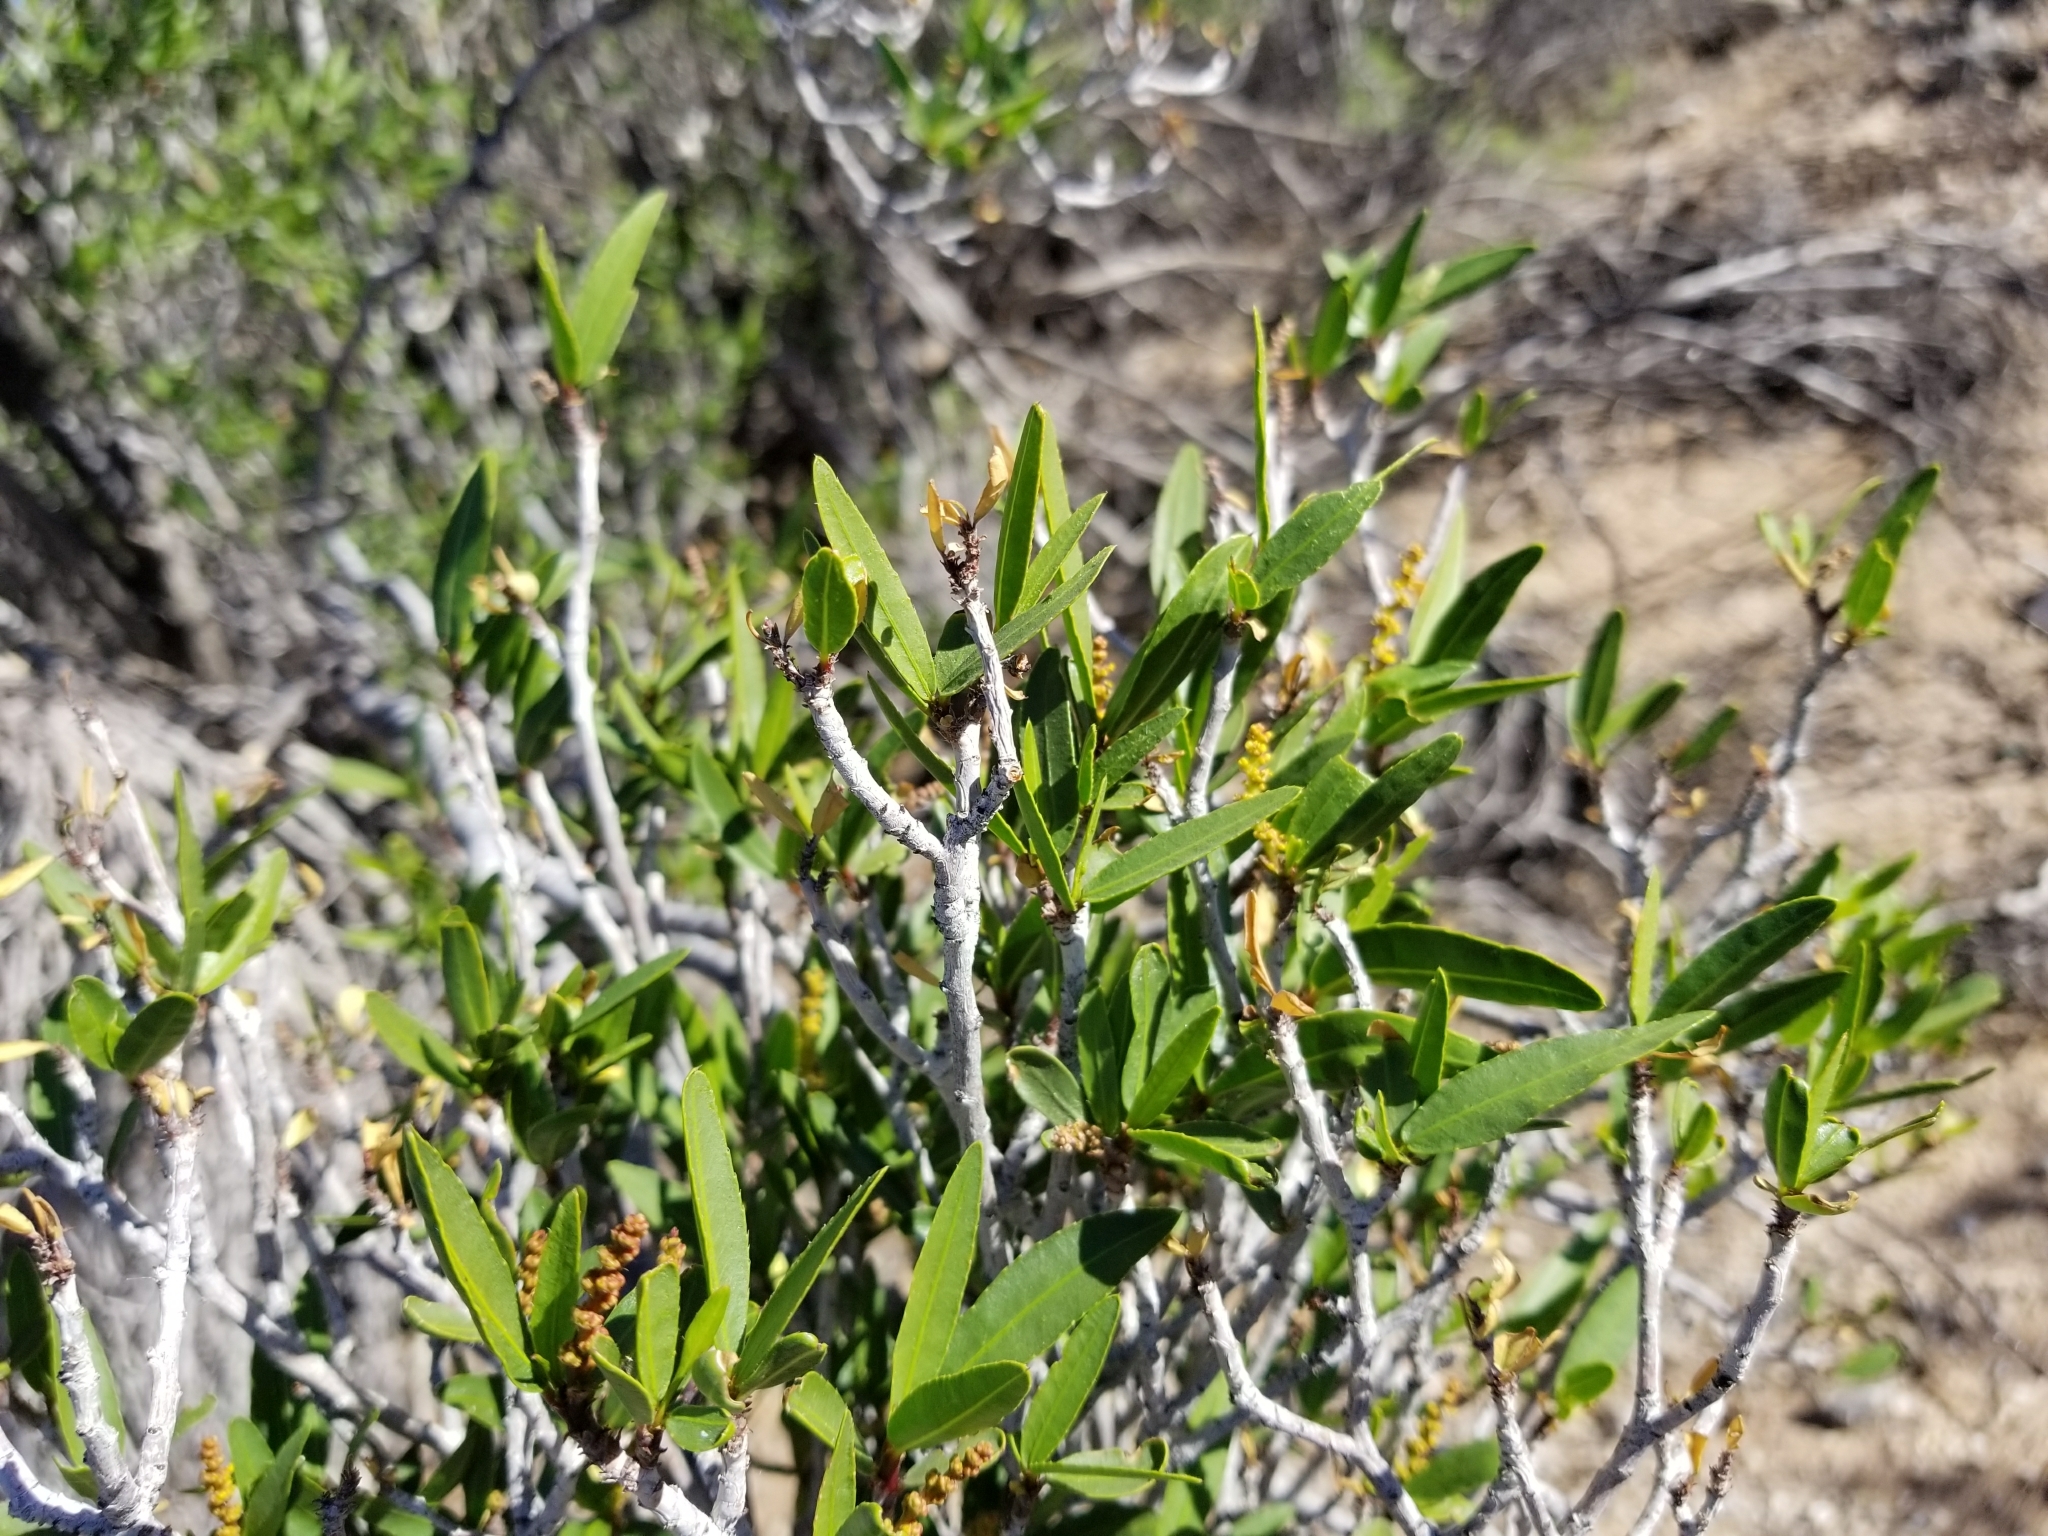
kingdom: Plantae
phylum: Tracheophyta
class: Magnoliopsida
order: Malpighiales
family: Euphorbiaceae
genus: Pleradenophora
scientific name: Pleradenophora bilocularis
